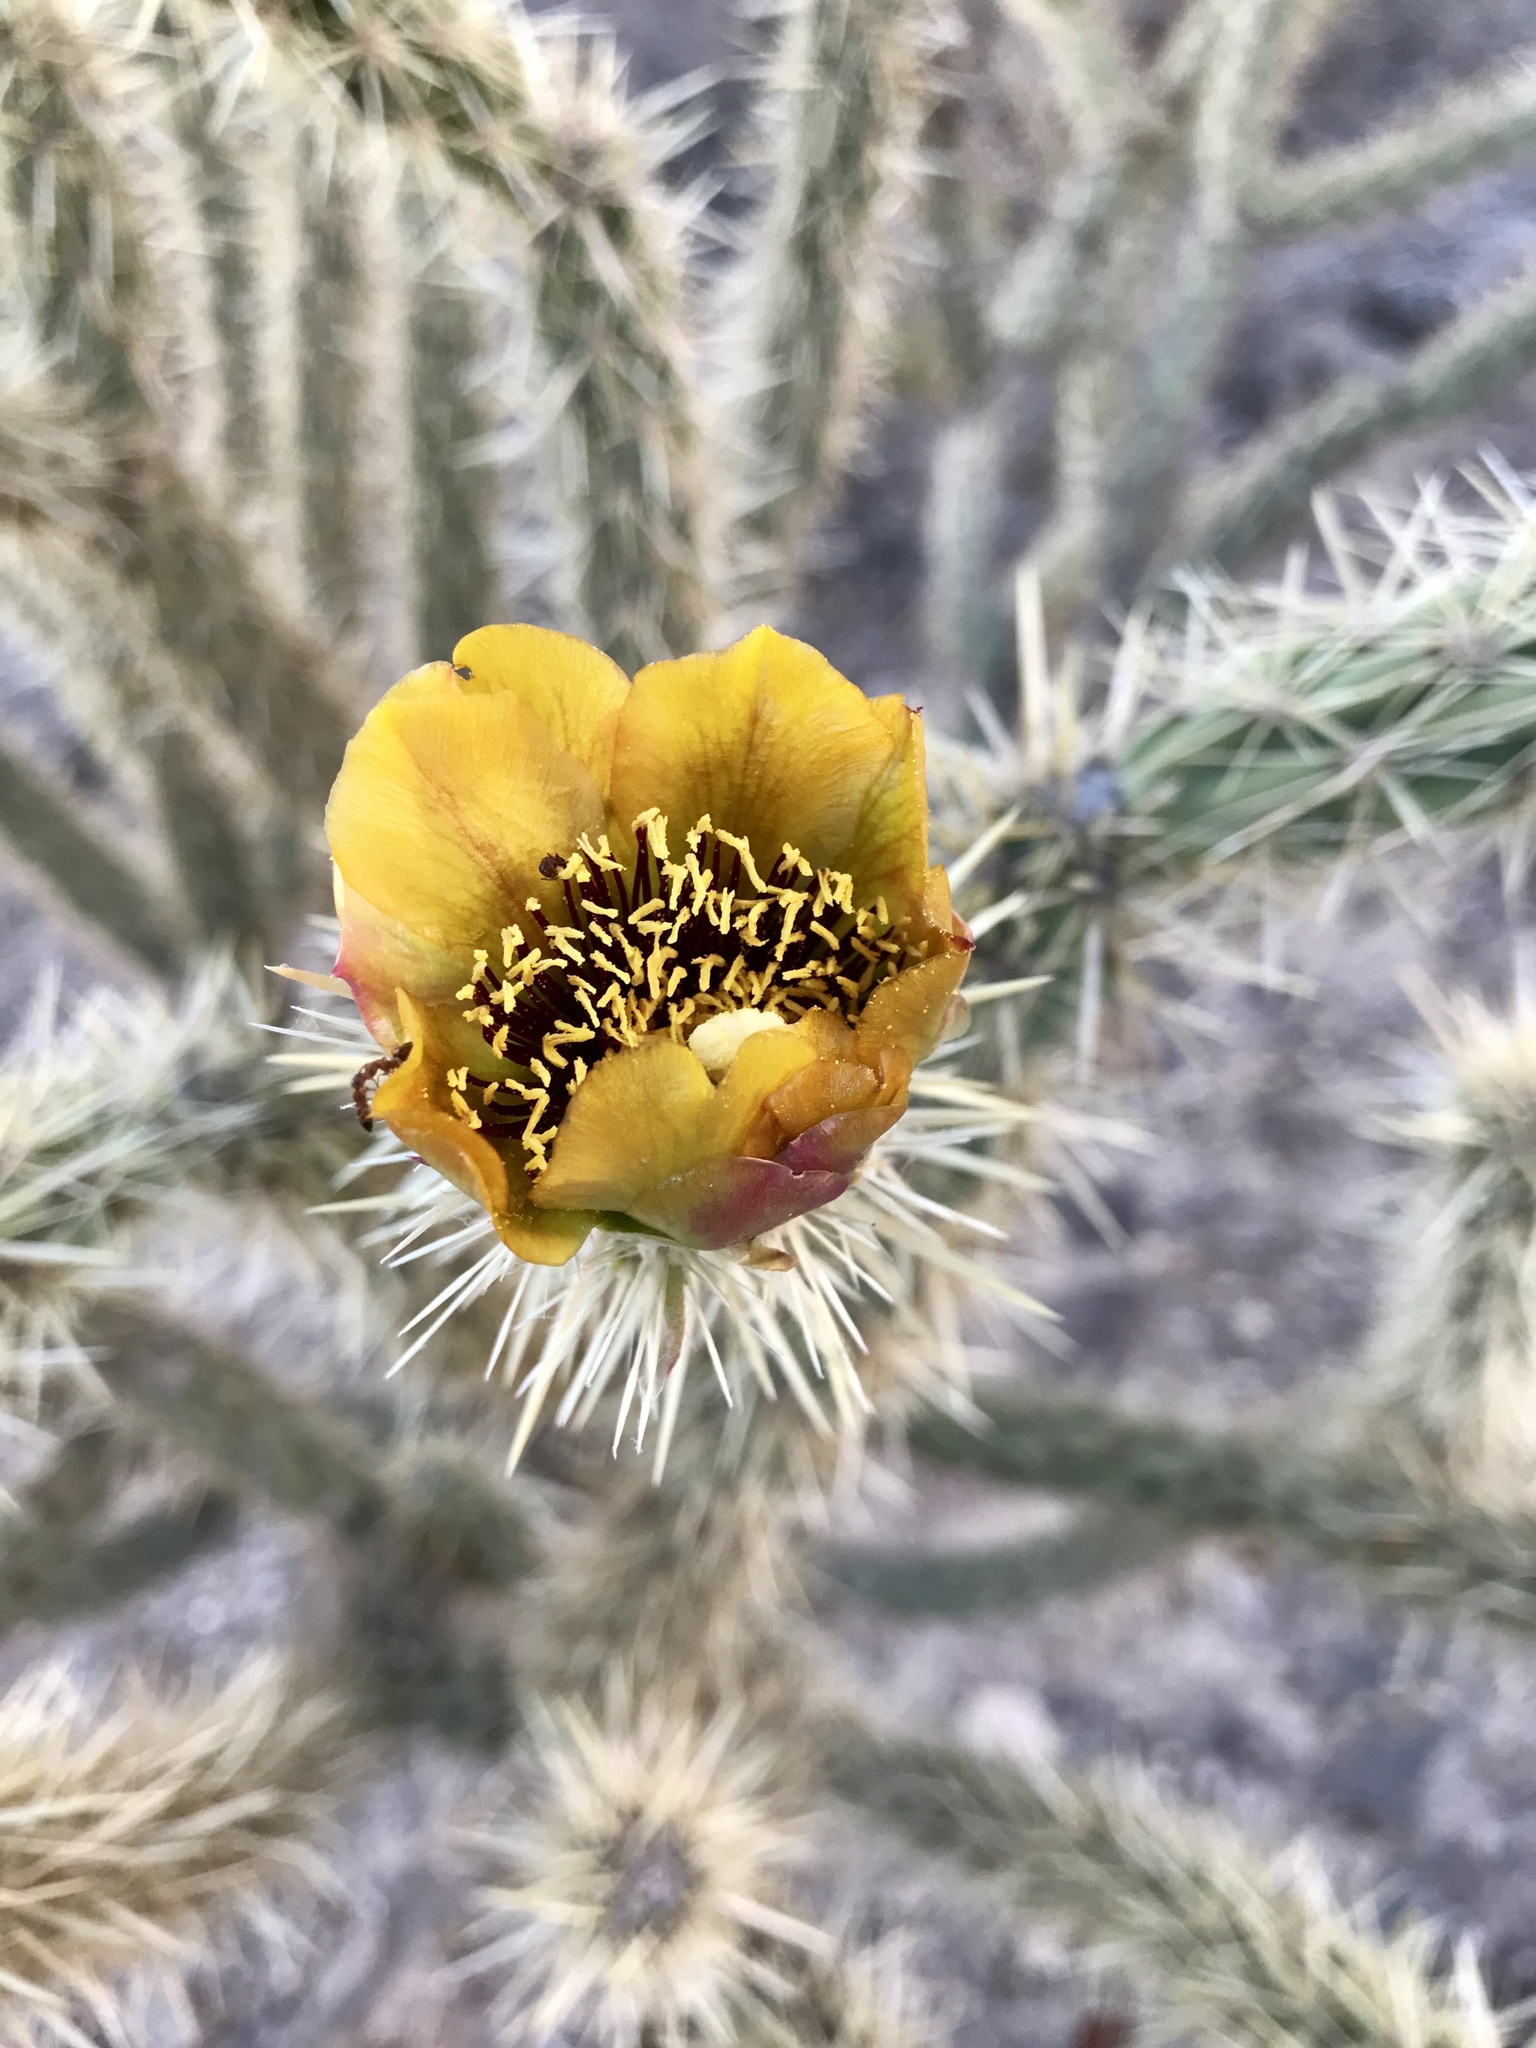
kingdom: Plantae
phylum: Tracheophyta
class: Magnoliopsida
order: Caryophyllales
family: Cactaceae
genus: Cylindropuntia
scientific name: Cylindropuntia acanthocarpa
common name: Buckhorn cholla
